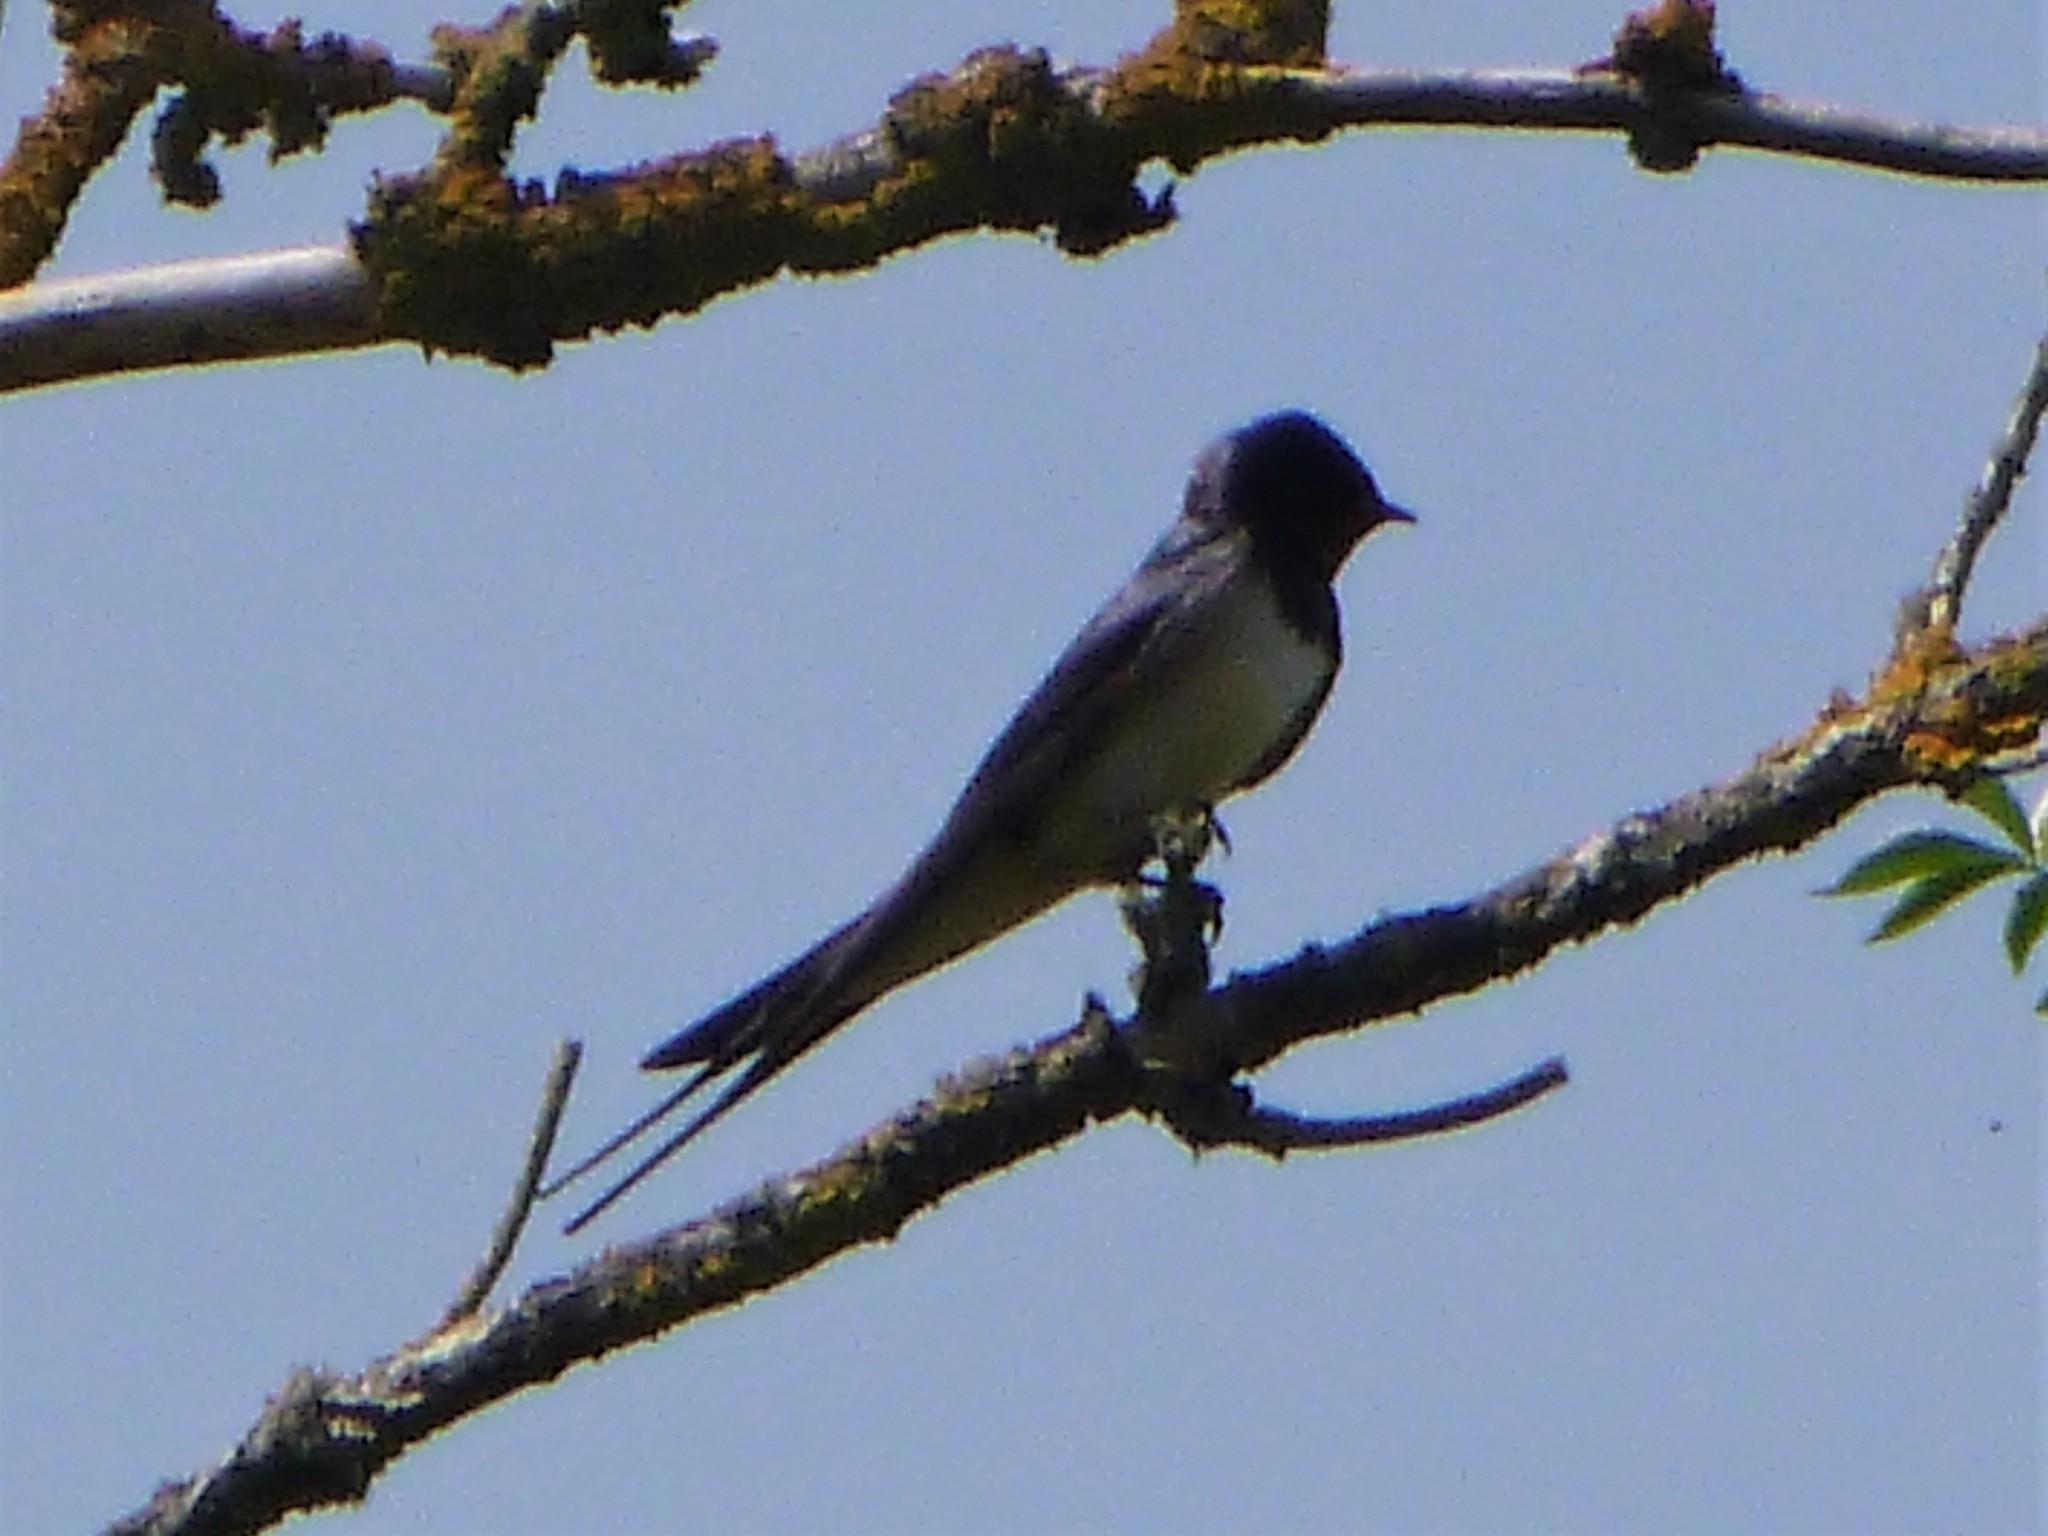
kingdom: Animalia
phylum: Chordata
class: Aves
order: Passeriformes
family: Hirundinidae
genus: Hirundo
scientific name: Hirundo rustica
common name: Barn swallow
